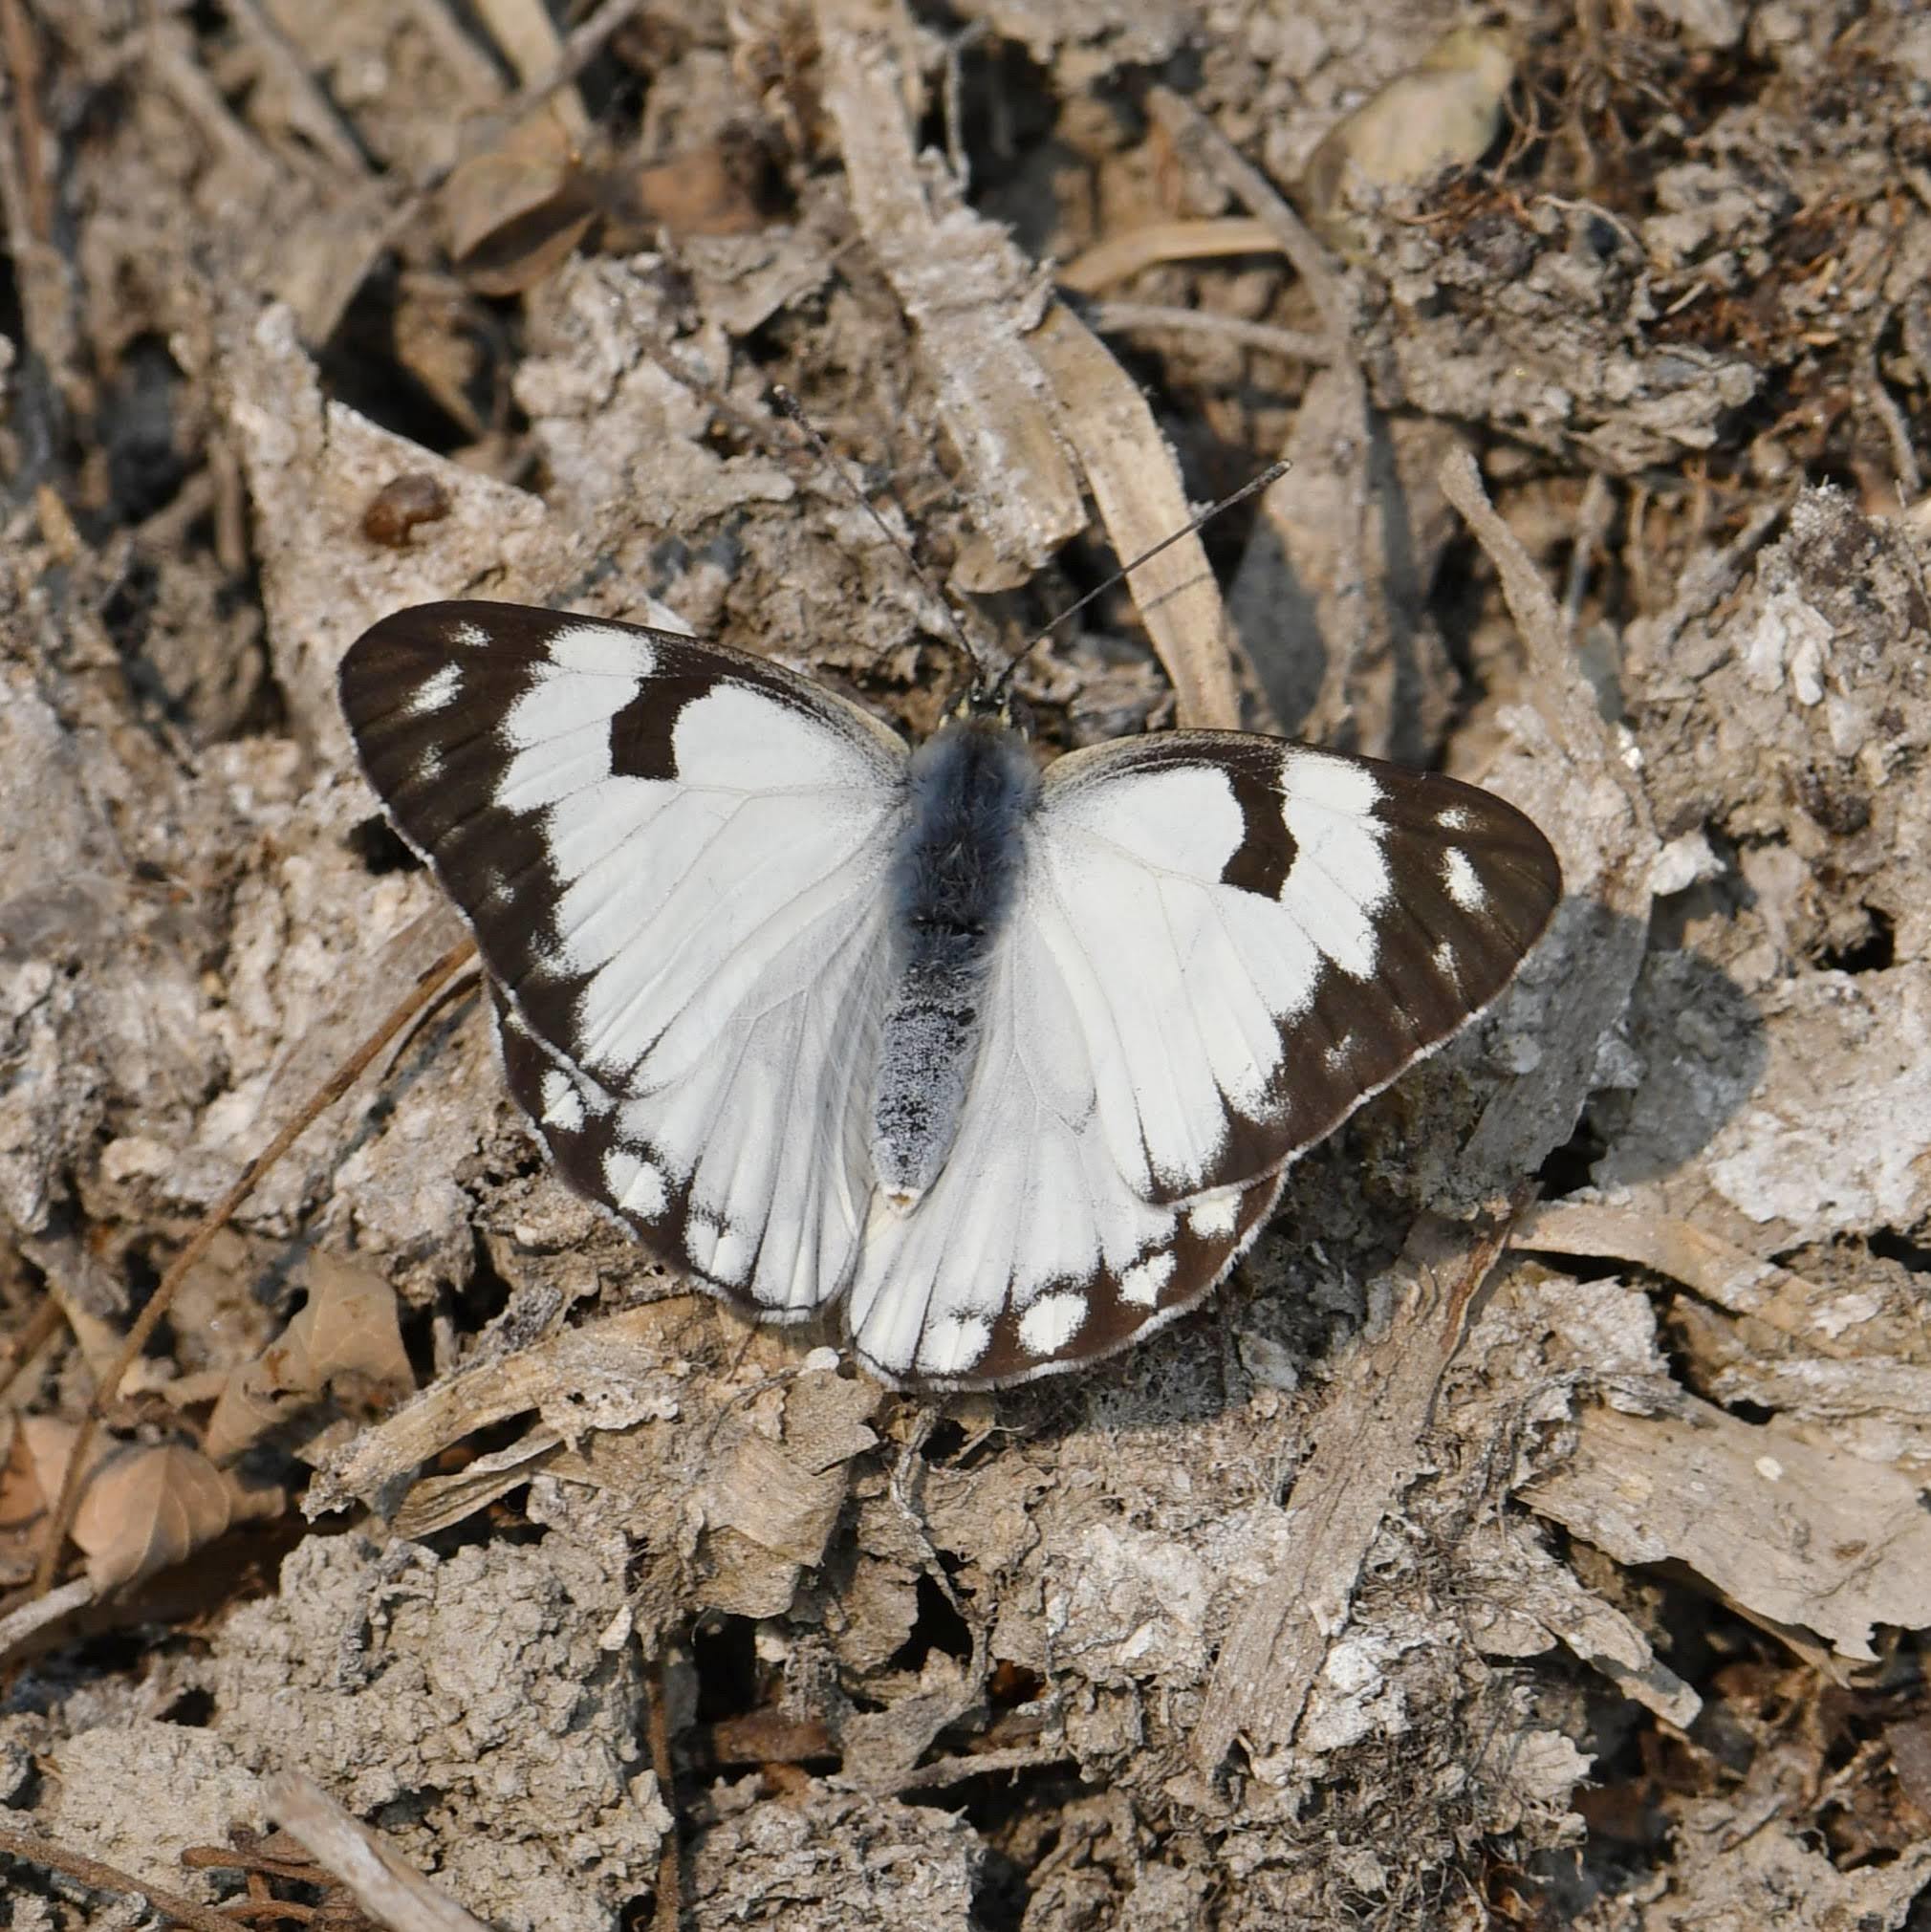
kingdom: Animalia
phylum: Arthropoda
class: Insecta
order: Lepidoptera
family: Pieridae
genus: Belenois
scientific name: Belenois aurota
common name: Brown-veined white
